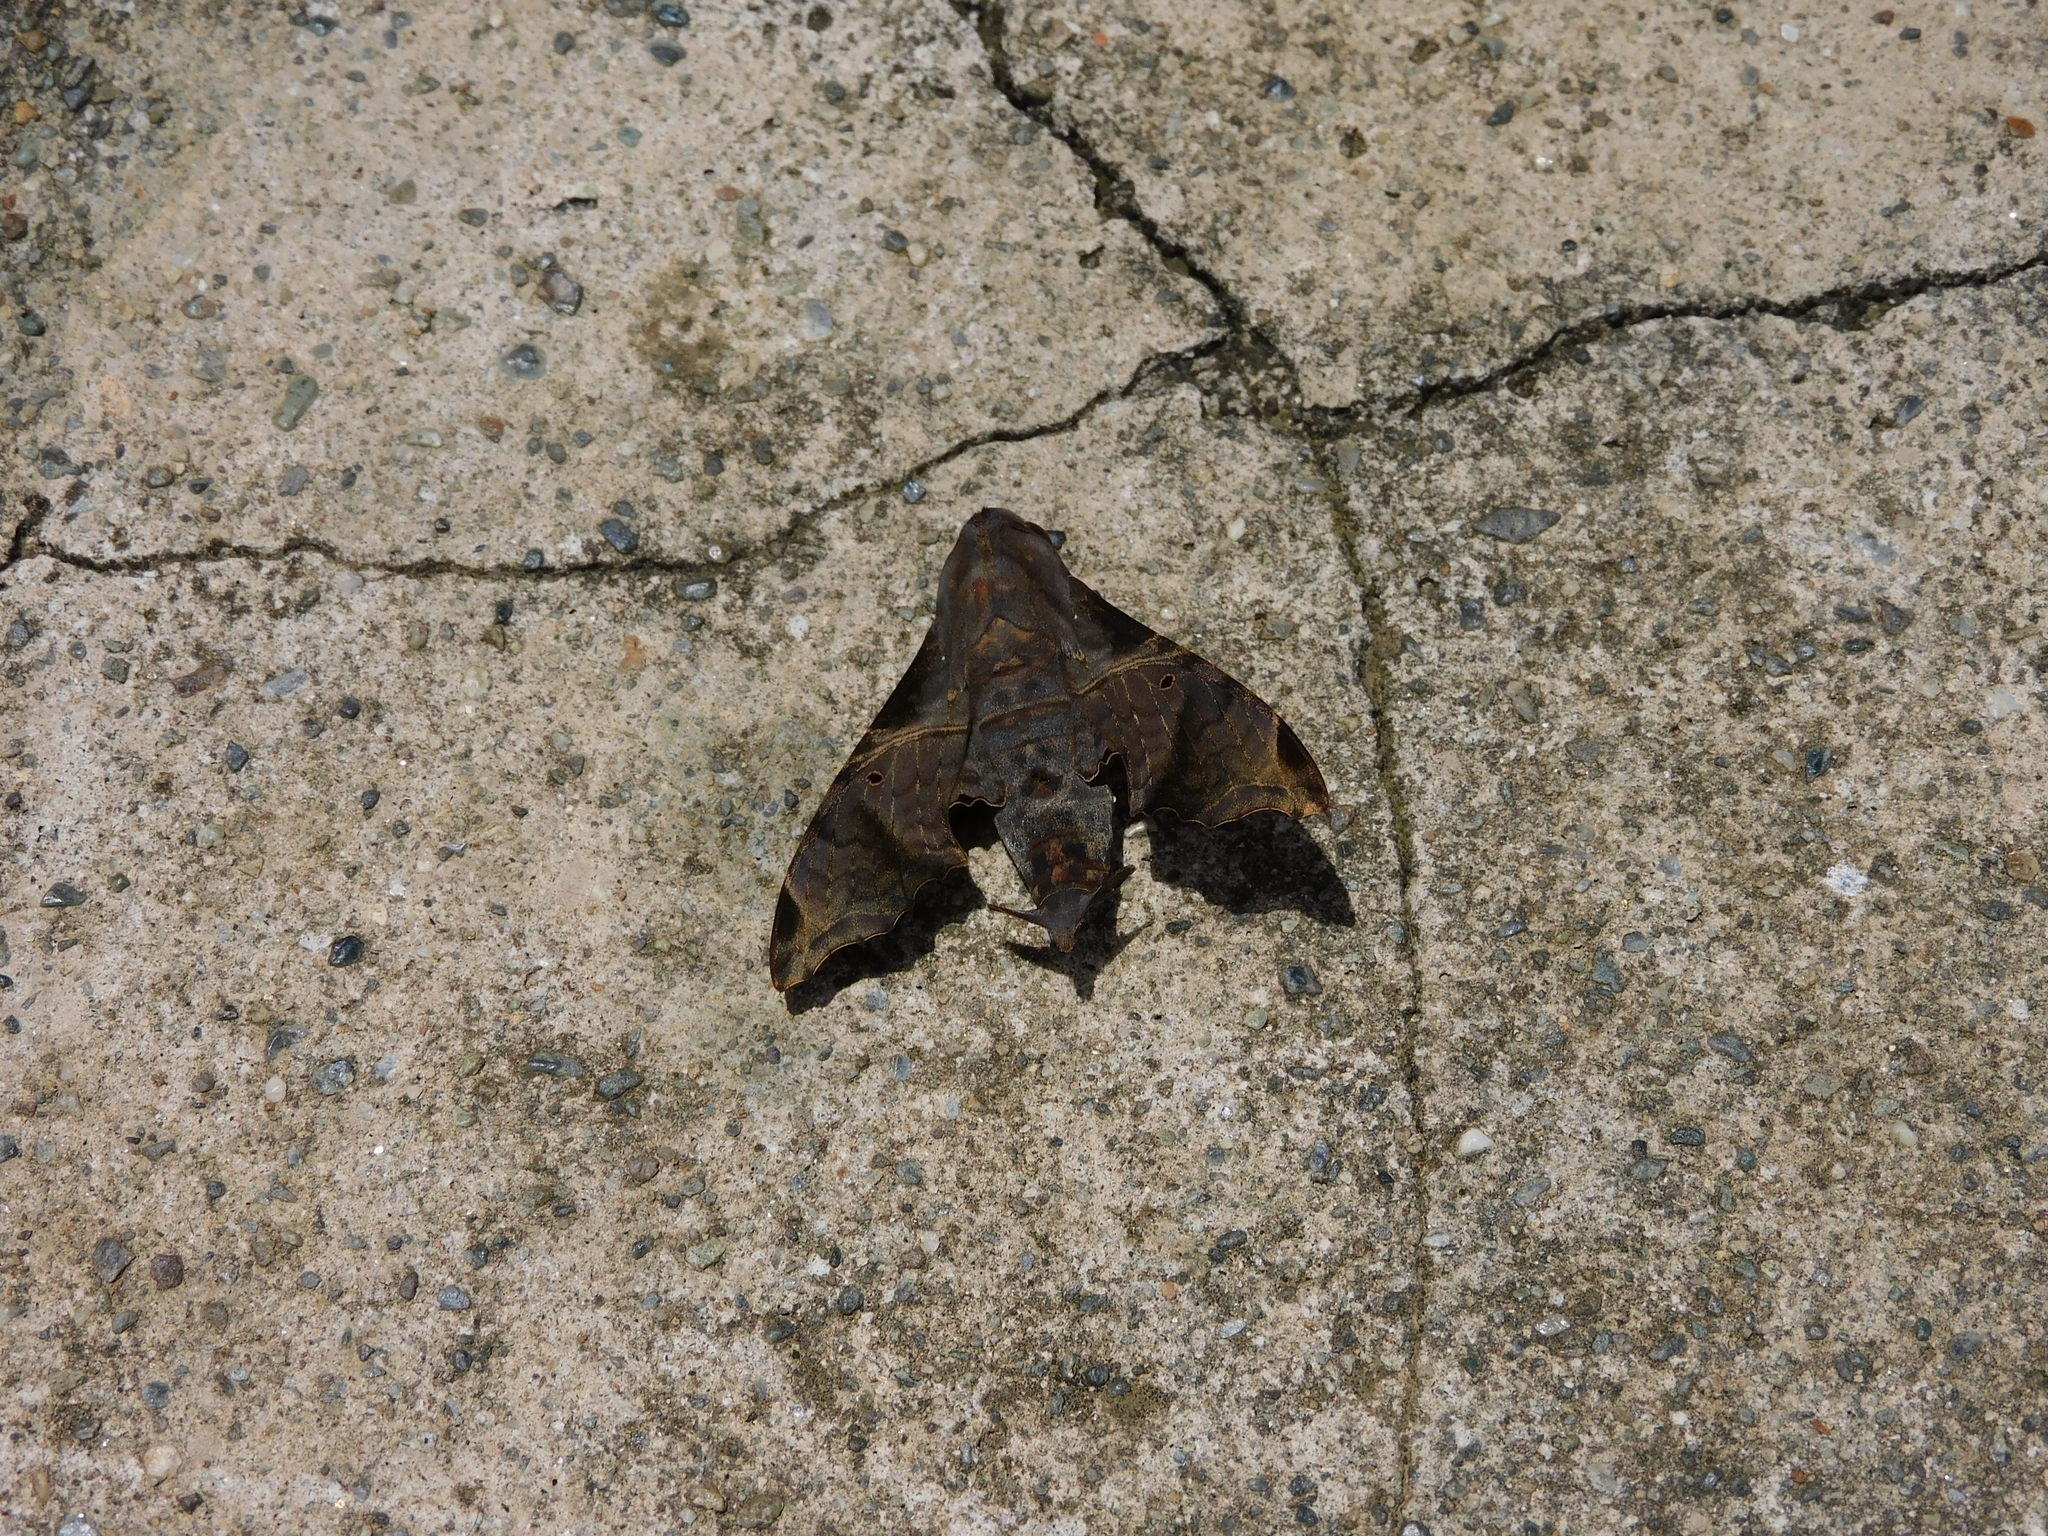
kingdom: Animalia
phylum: Arthropoda
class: Insecta
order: Lepidoptera
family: Sphingidae
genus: Enyo
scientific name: Enyo lugubris
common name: Mournful sphinx
